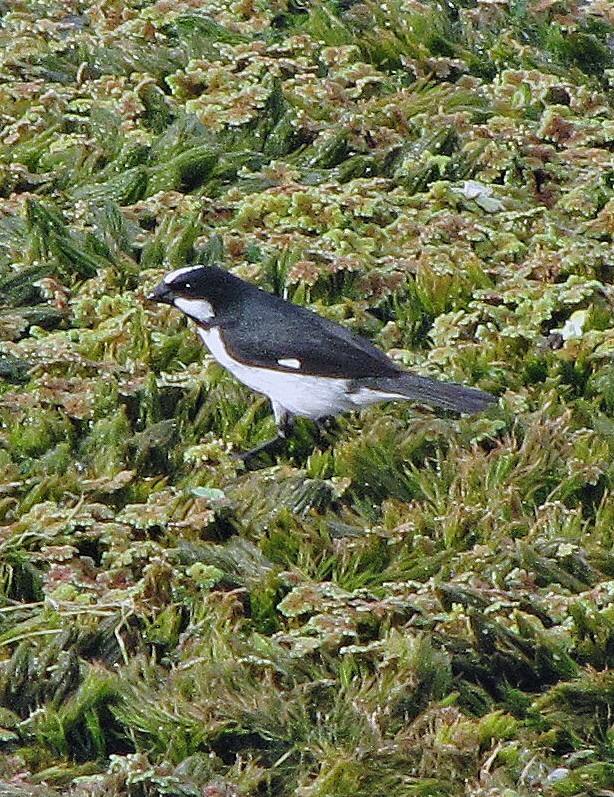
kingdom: Animalia
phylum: Chordata
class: Aves
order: Passeriformes
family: Thraupidae
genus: Sporophila
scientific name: Sporophila lineola
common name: Lined seedeater
